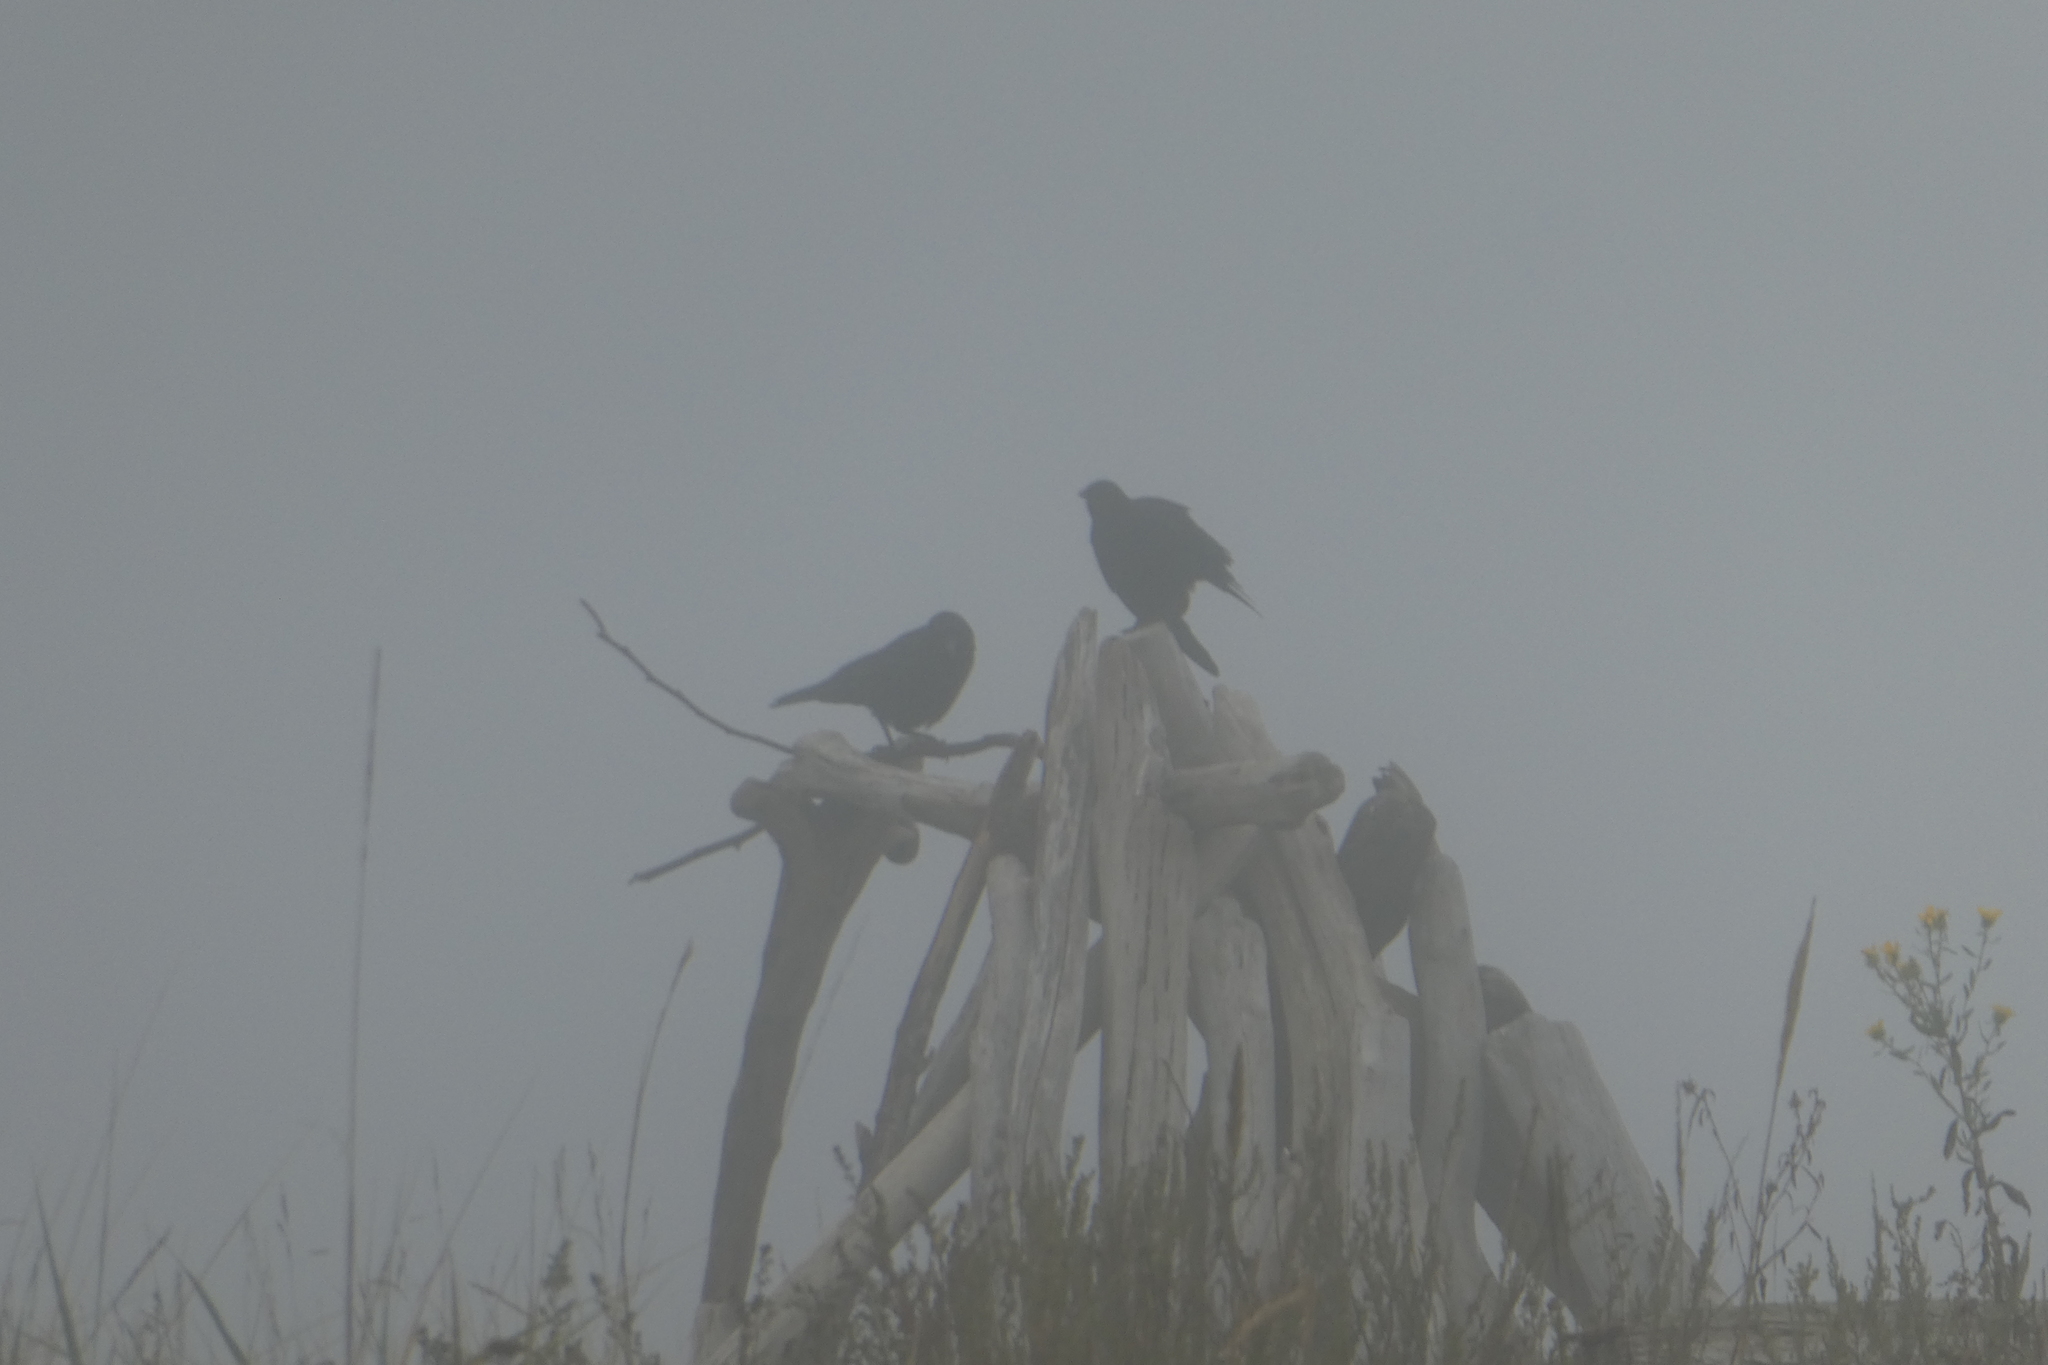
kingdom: Animalia
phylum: Chordata
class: Aves
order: Passeriformes
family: Corvidae
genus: Corvus
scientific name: Corvus brachyrhynchos
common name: American crow
